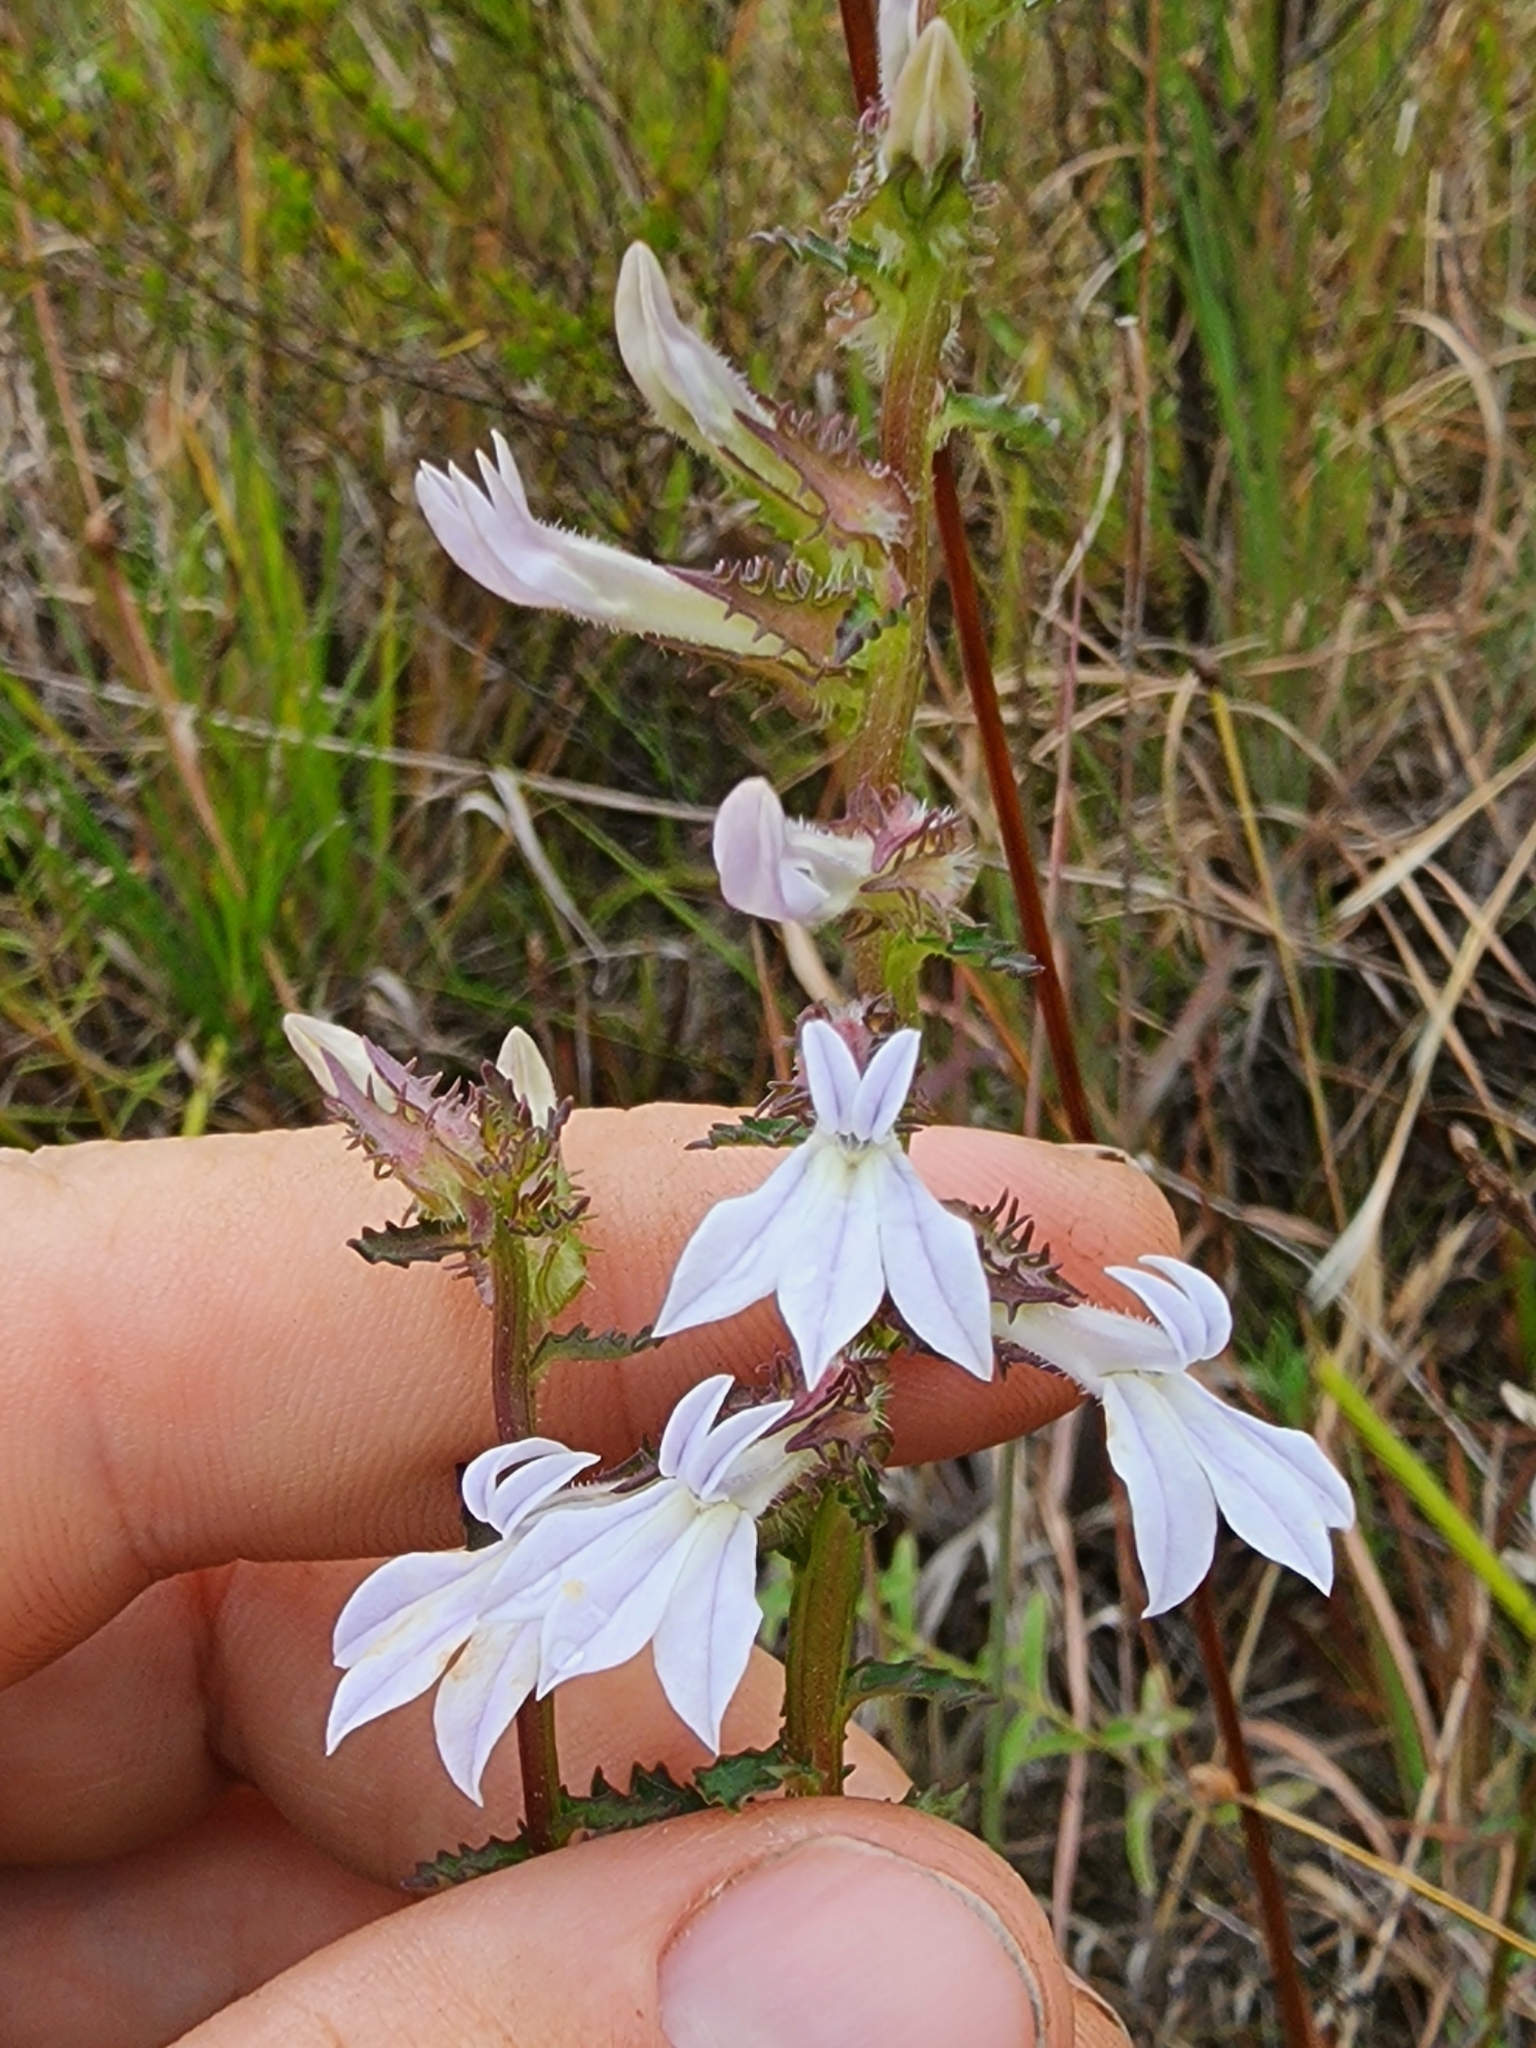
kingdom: Plantae
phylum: Tracheophyta
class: Magnoliopsida
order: Asterales
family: Campanulaceae
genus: Lobelia
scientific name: Lobelia brevifolia
